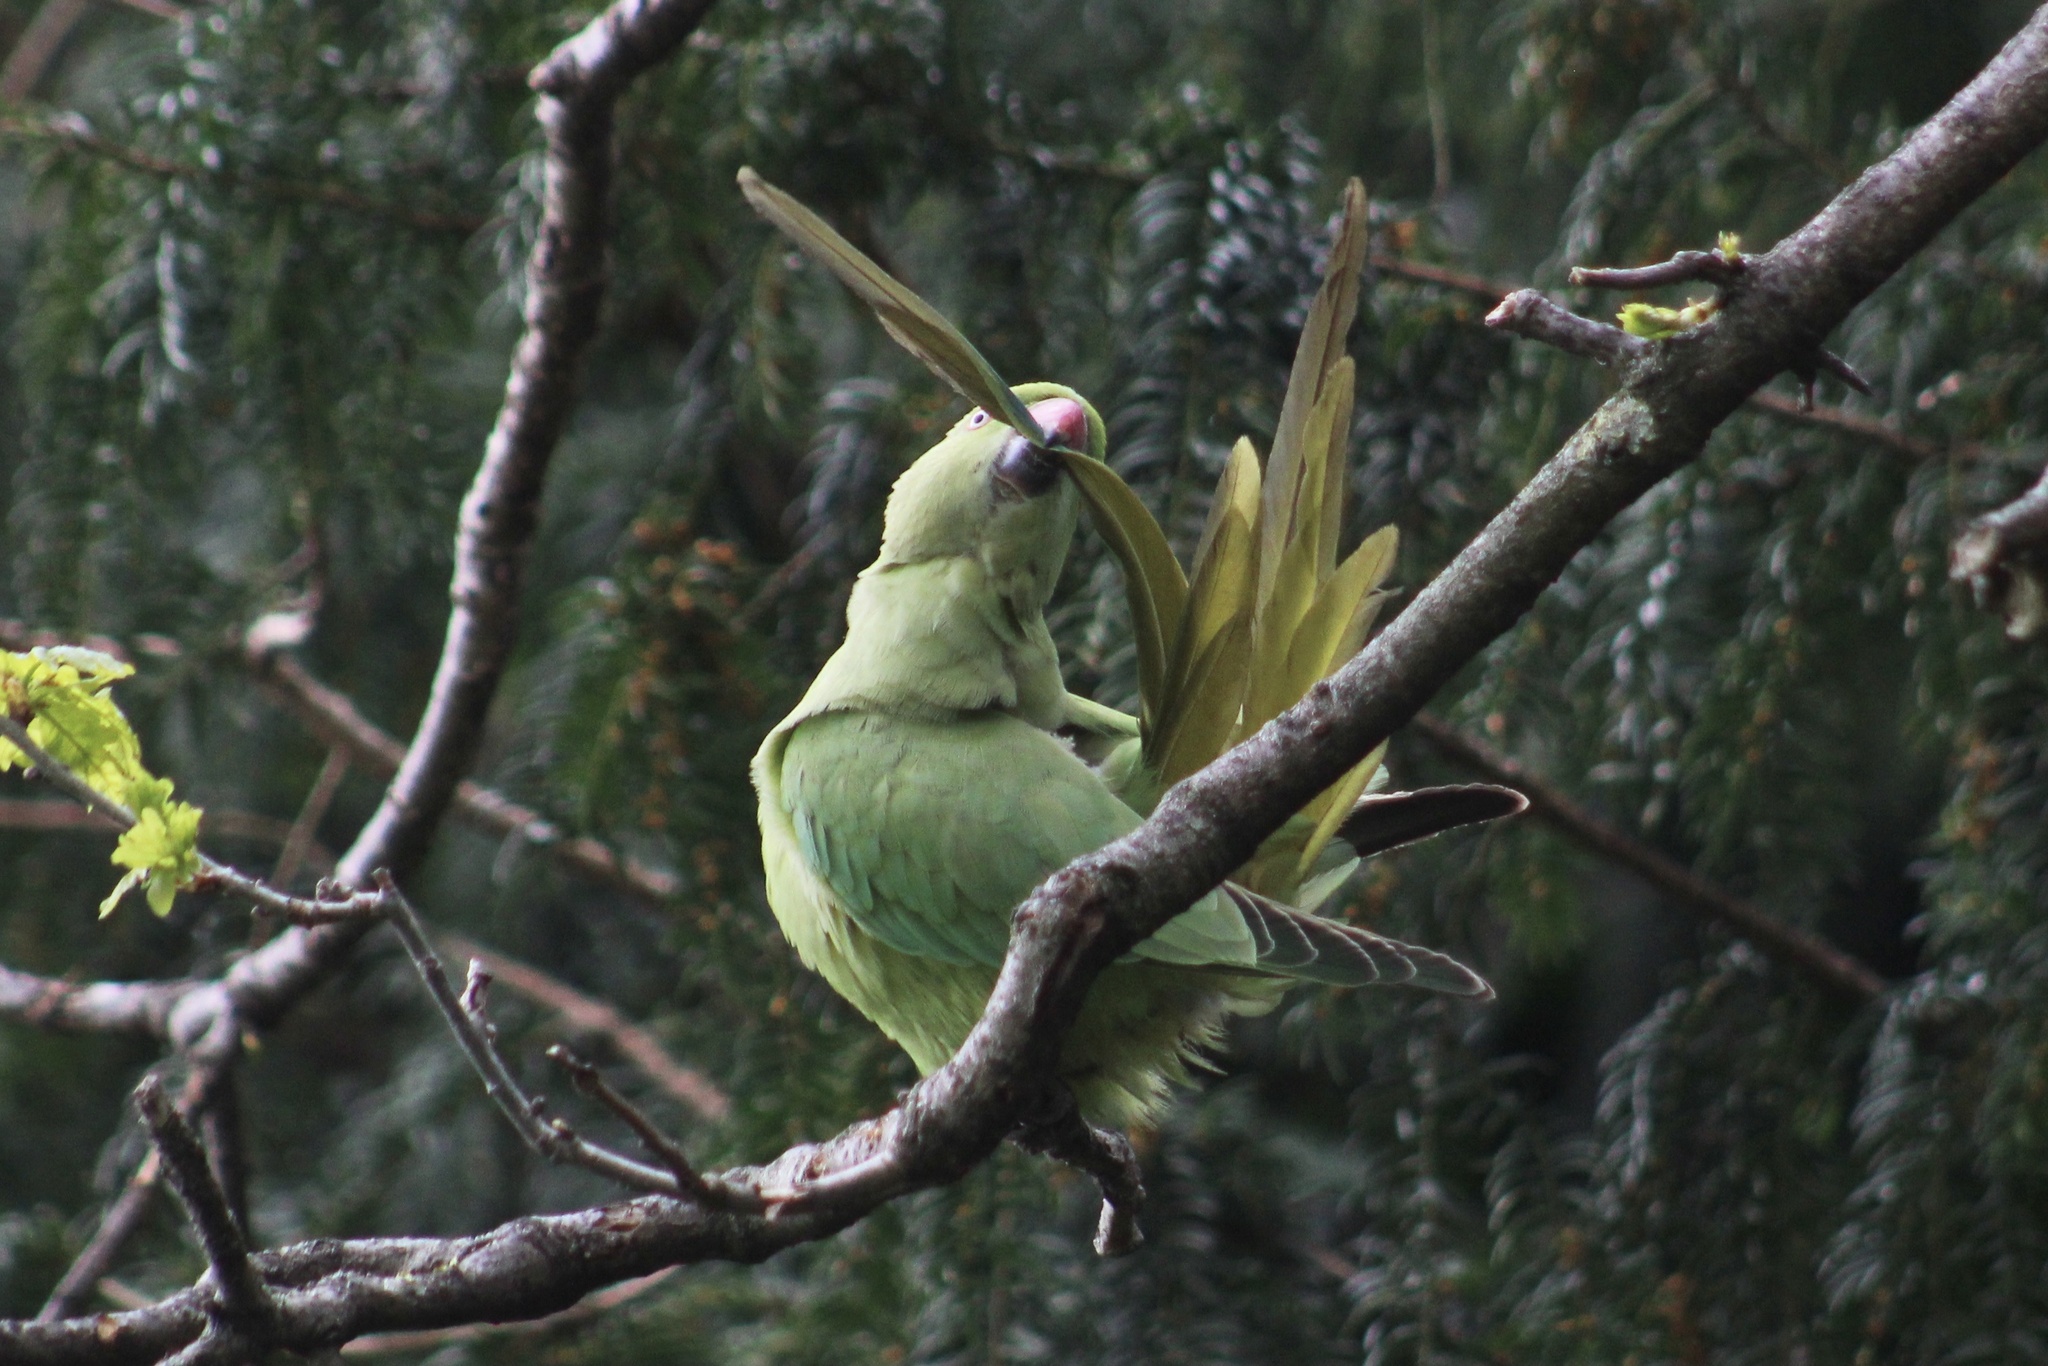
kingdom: Animalia
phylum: Chordata
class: Aves
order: Psittaciformes
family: Psittacidae
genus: Psittacula
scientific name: Psittacula krameri
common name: Rose-ringed parakeet
